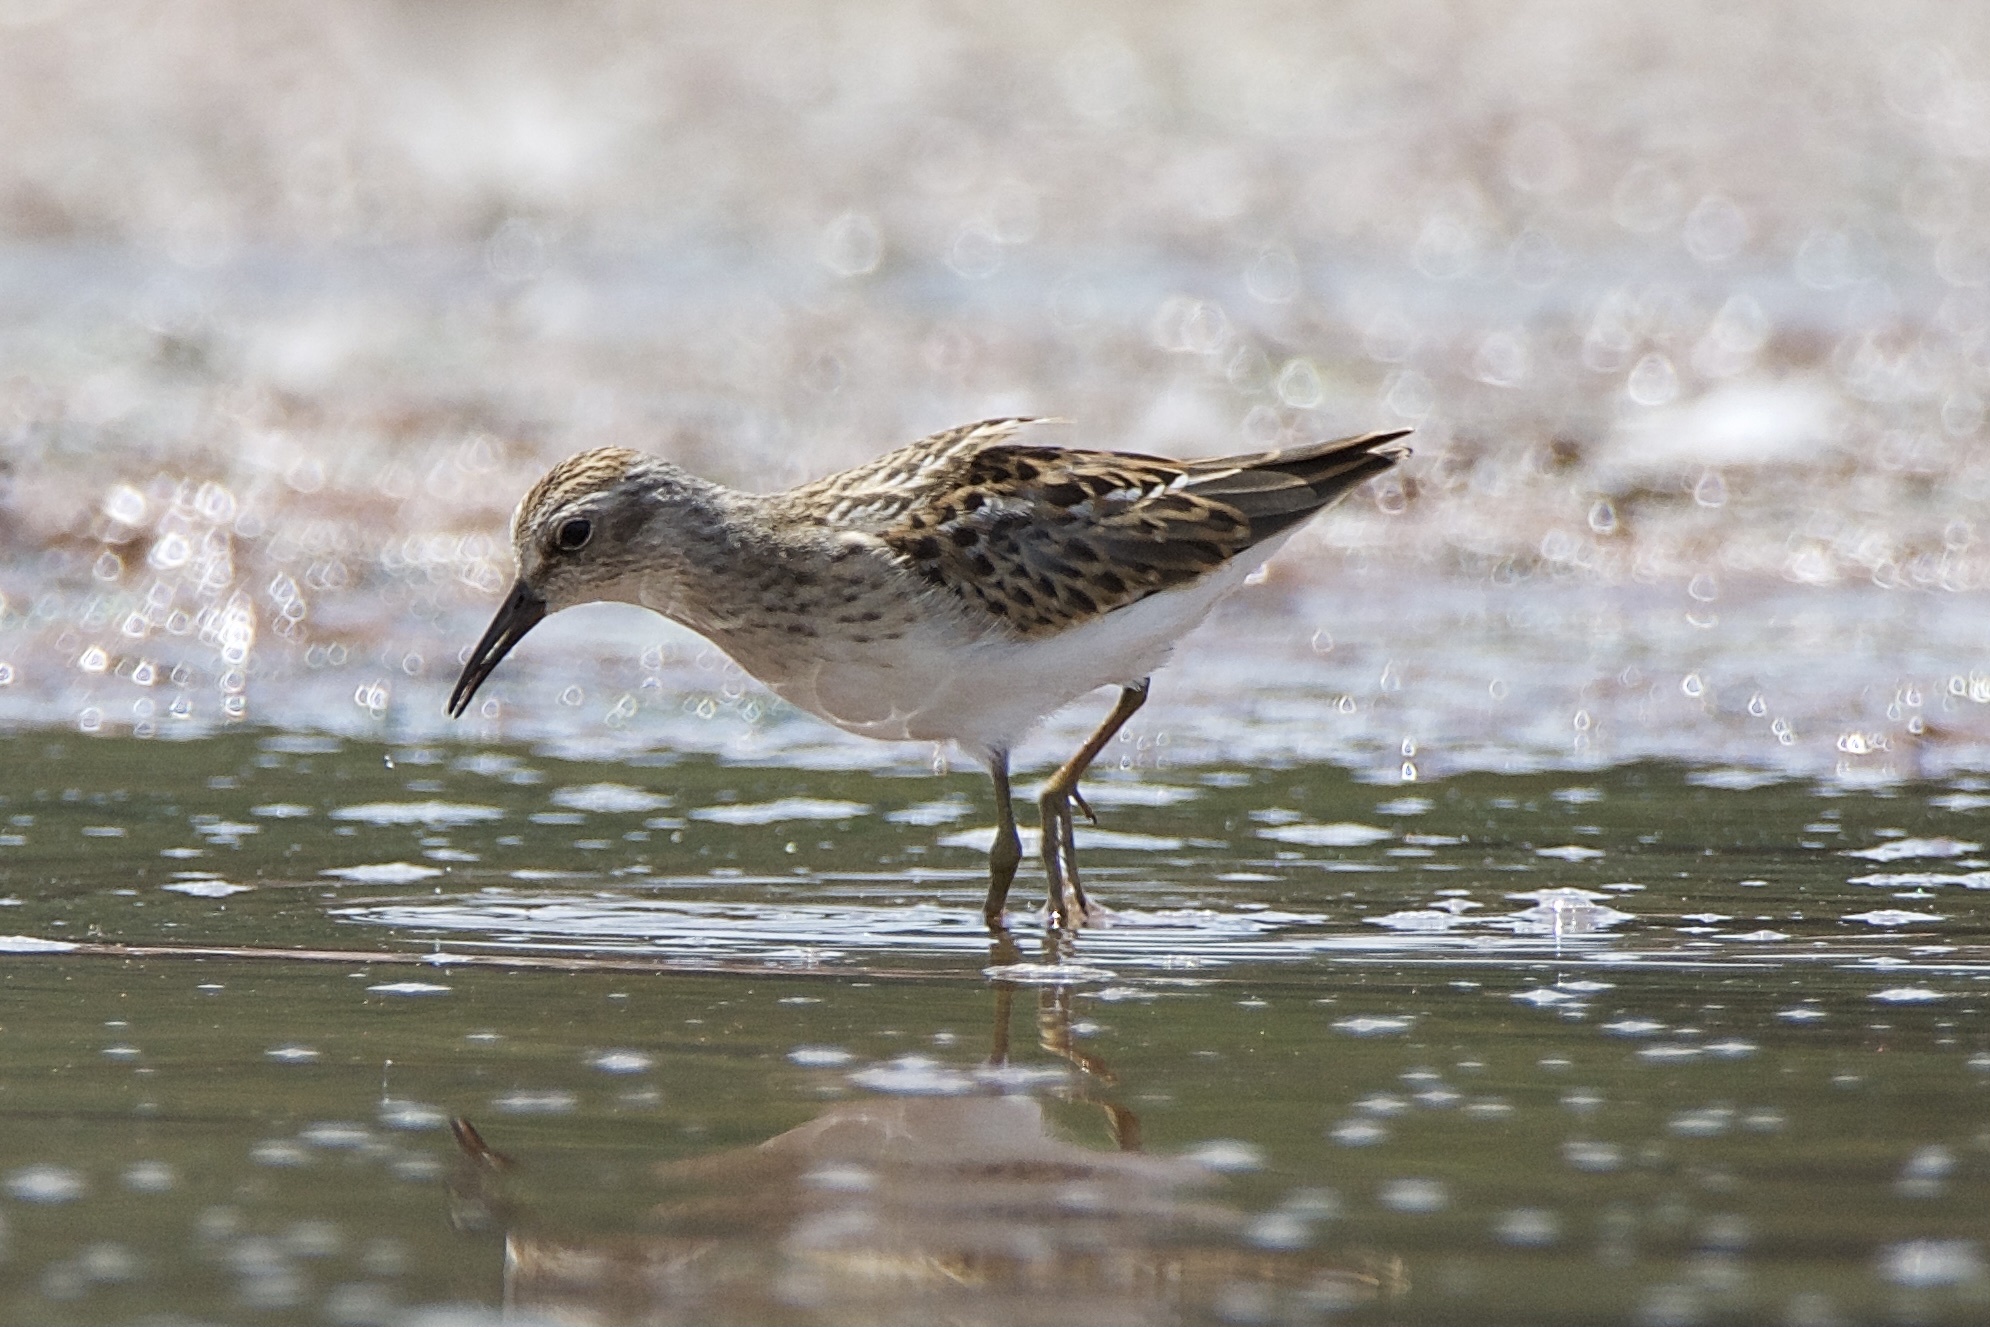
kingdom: Animalia
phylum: Chordata
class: Aves
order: Charadriiformes
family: Scolopacidae
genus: Calidris
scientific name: Calidris minutilla
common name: Least sandpiper
